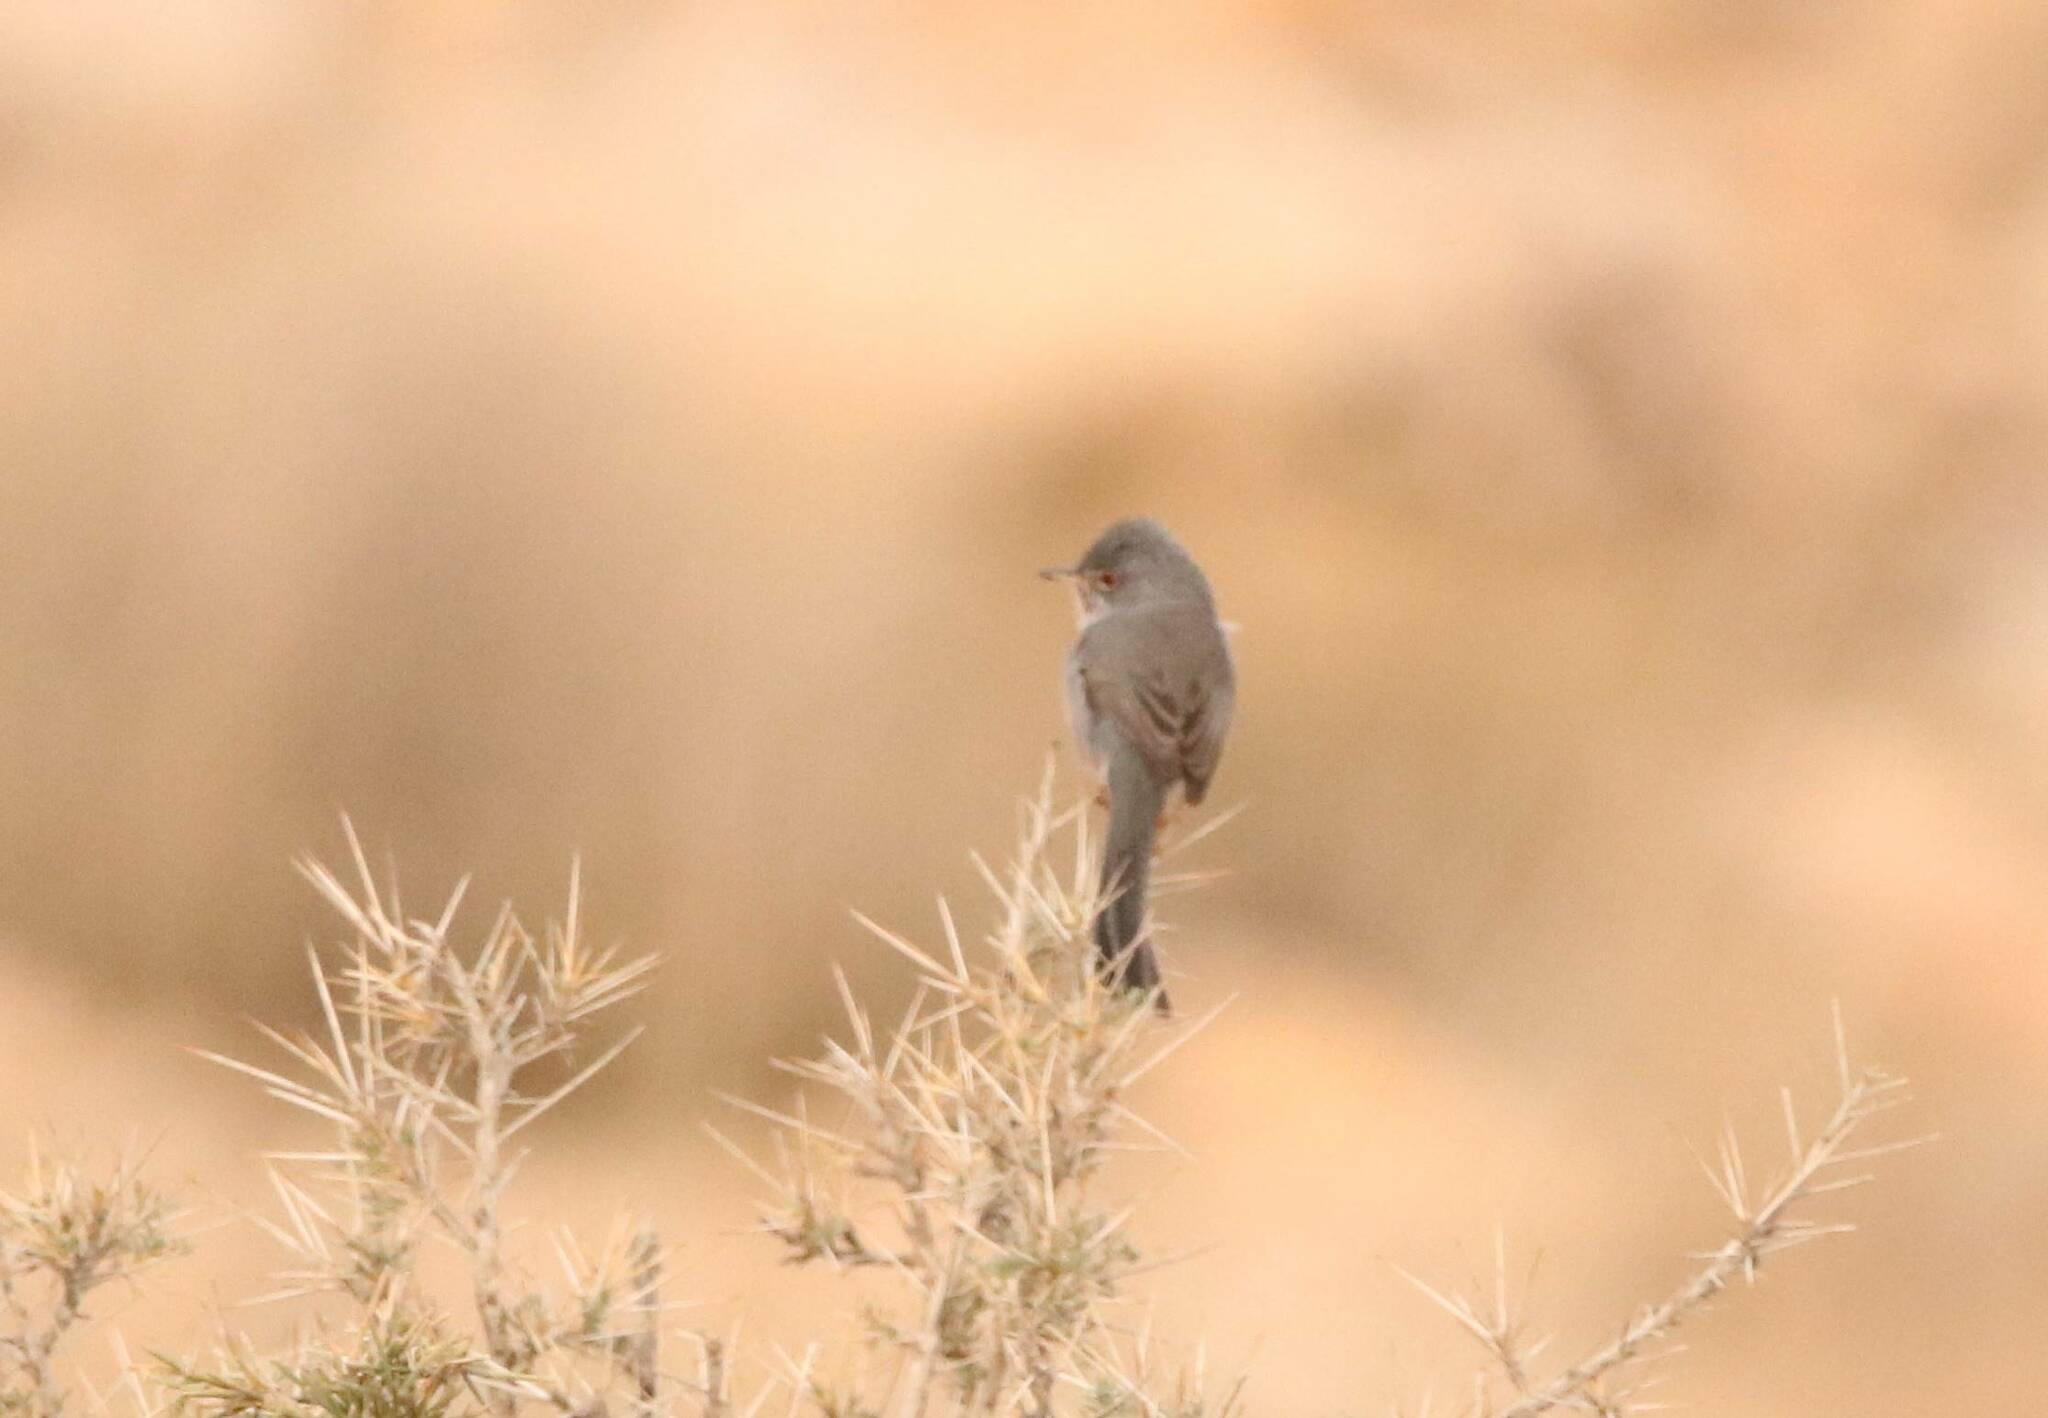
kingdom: Animalia
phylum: Chordata
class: Aves
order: Passeriformes
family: Sylviidae
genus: Sylvia
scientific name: Sylvia sarda
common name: Marmora's warbler
